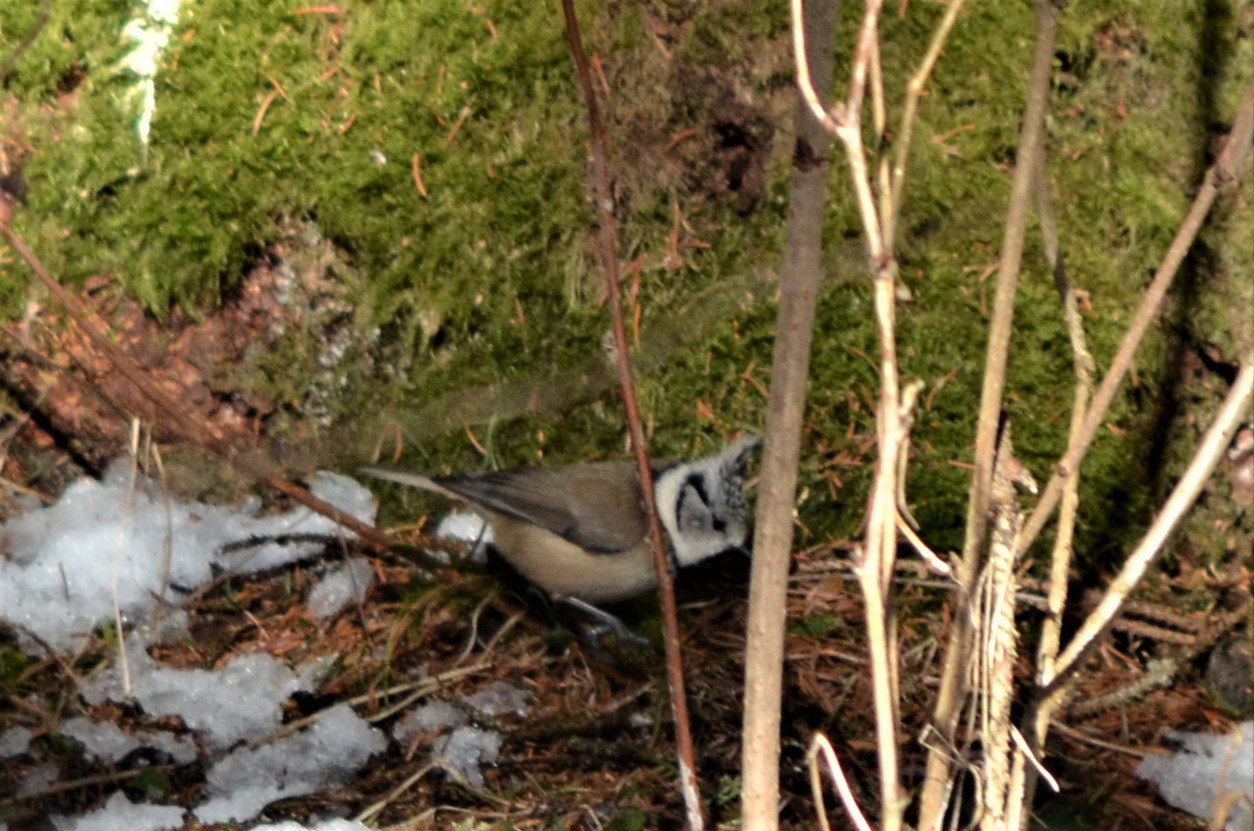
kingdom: Animalia
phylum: Chordata
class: Aves
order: Passeriformes
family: Paridae
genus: Lophophanes
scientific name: Lophophanes cristatus
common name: European crested tit
